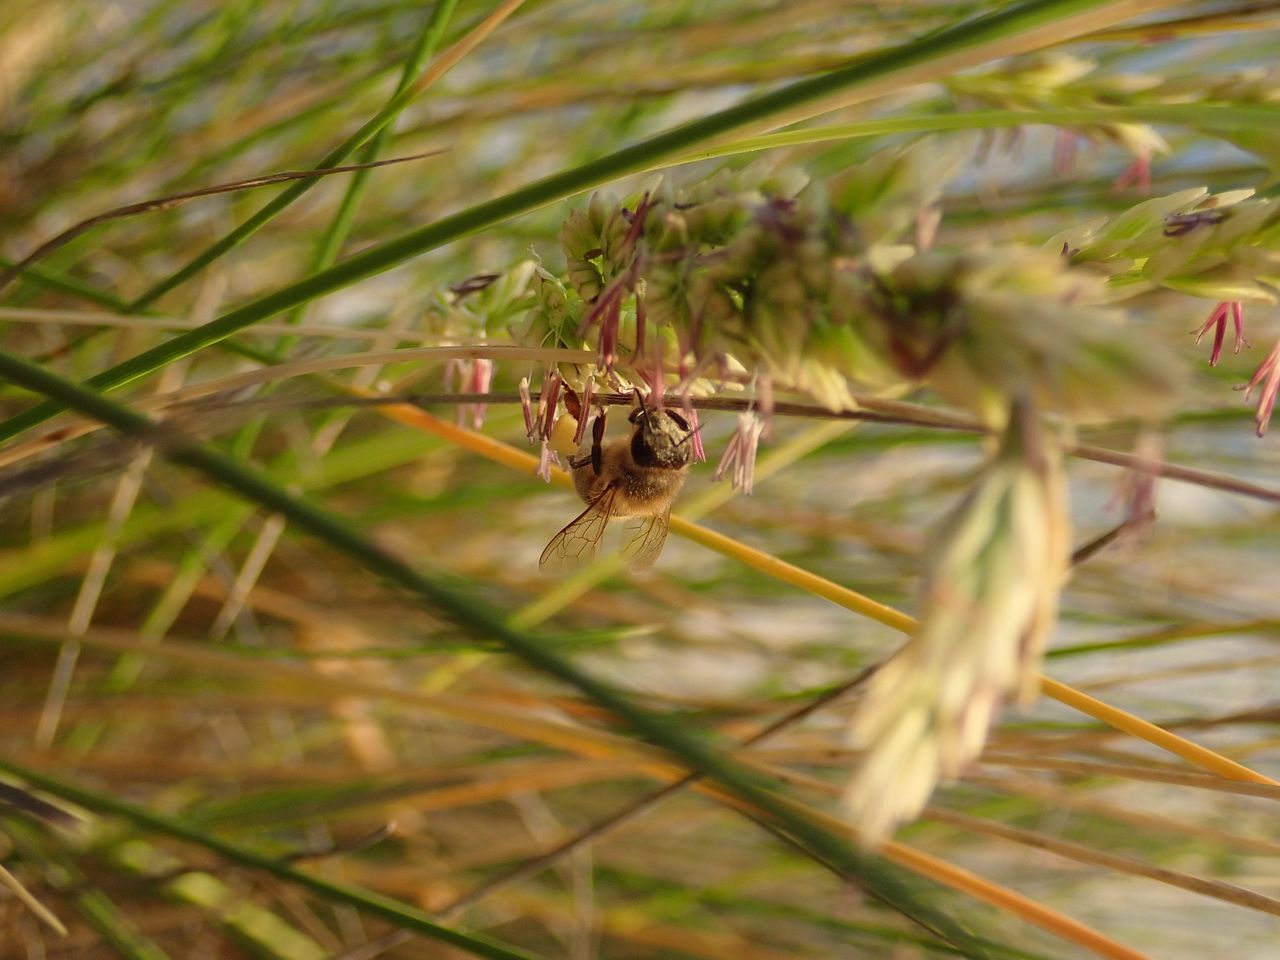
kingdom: Plantae
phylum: Tracheophyta
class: Liliopsida
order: Poales
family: Poaceae
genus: Calamagrostis
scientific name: Calamagrostis arenaria
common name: European beachgrass
